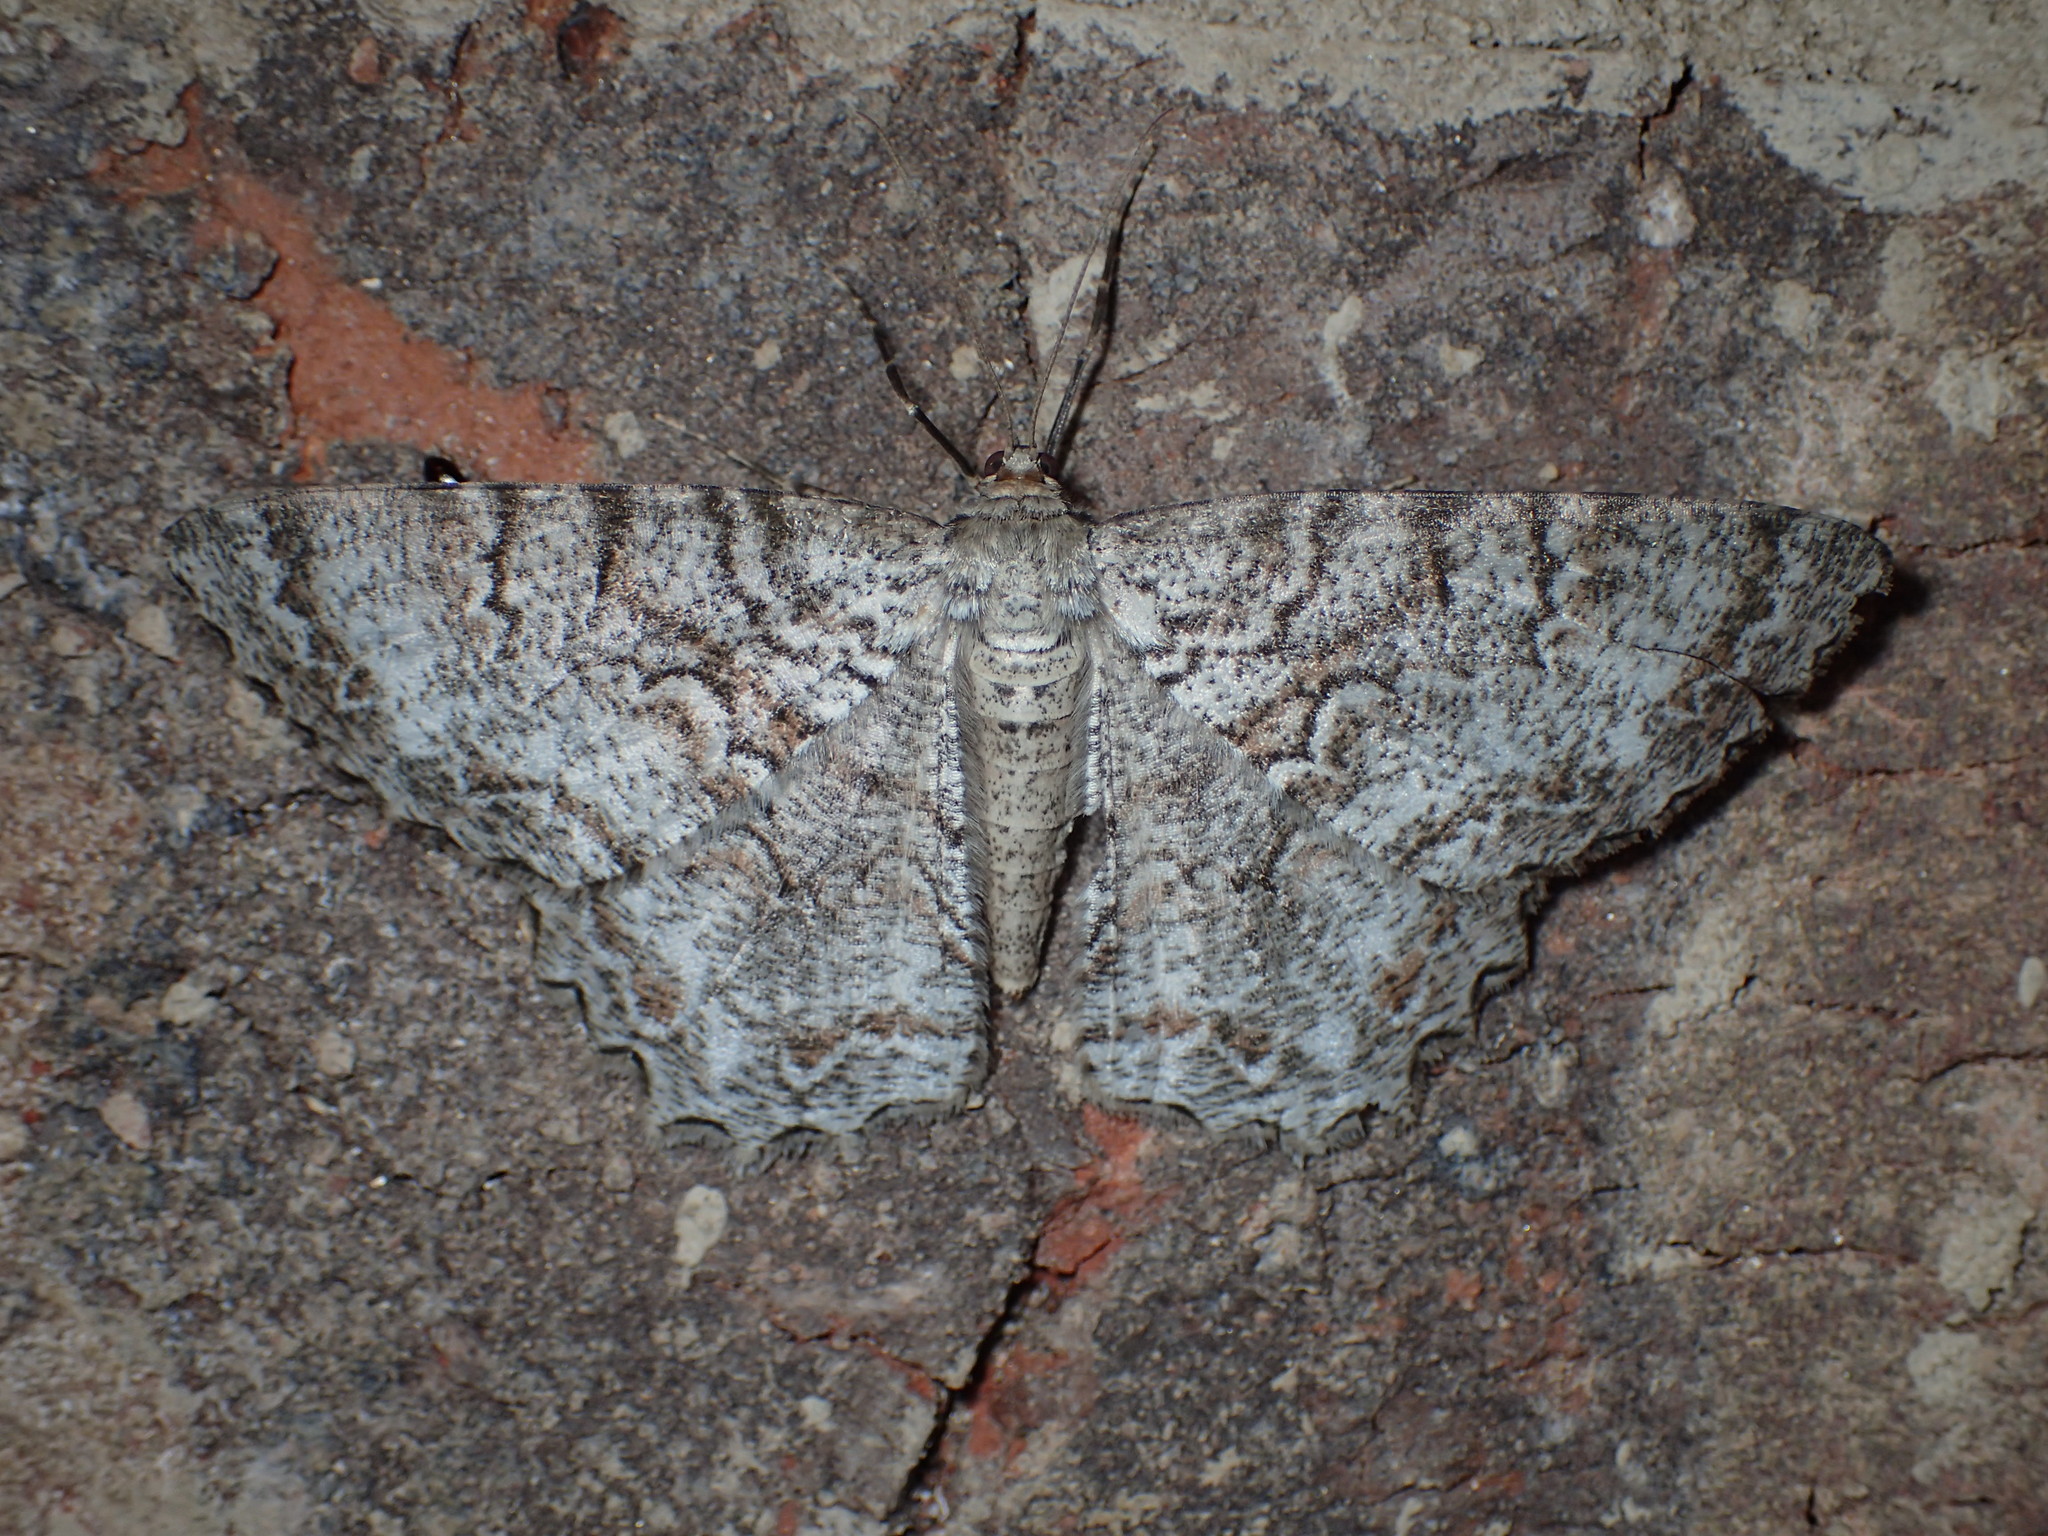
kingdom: Animalia
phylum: Arthropoda
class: Insecta
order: Lepidoptera
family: Geometridae
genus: Epimecis
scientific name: Epimecis hortaria
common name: Tulip-tree beauty
